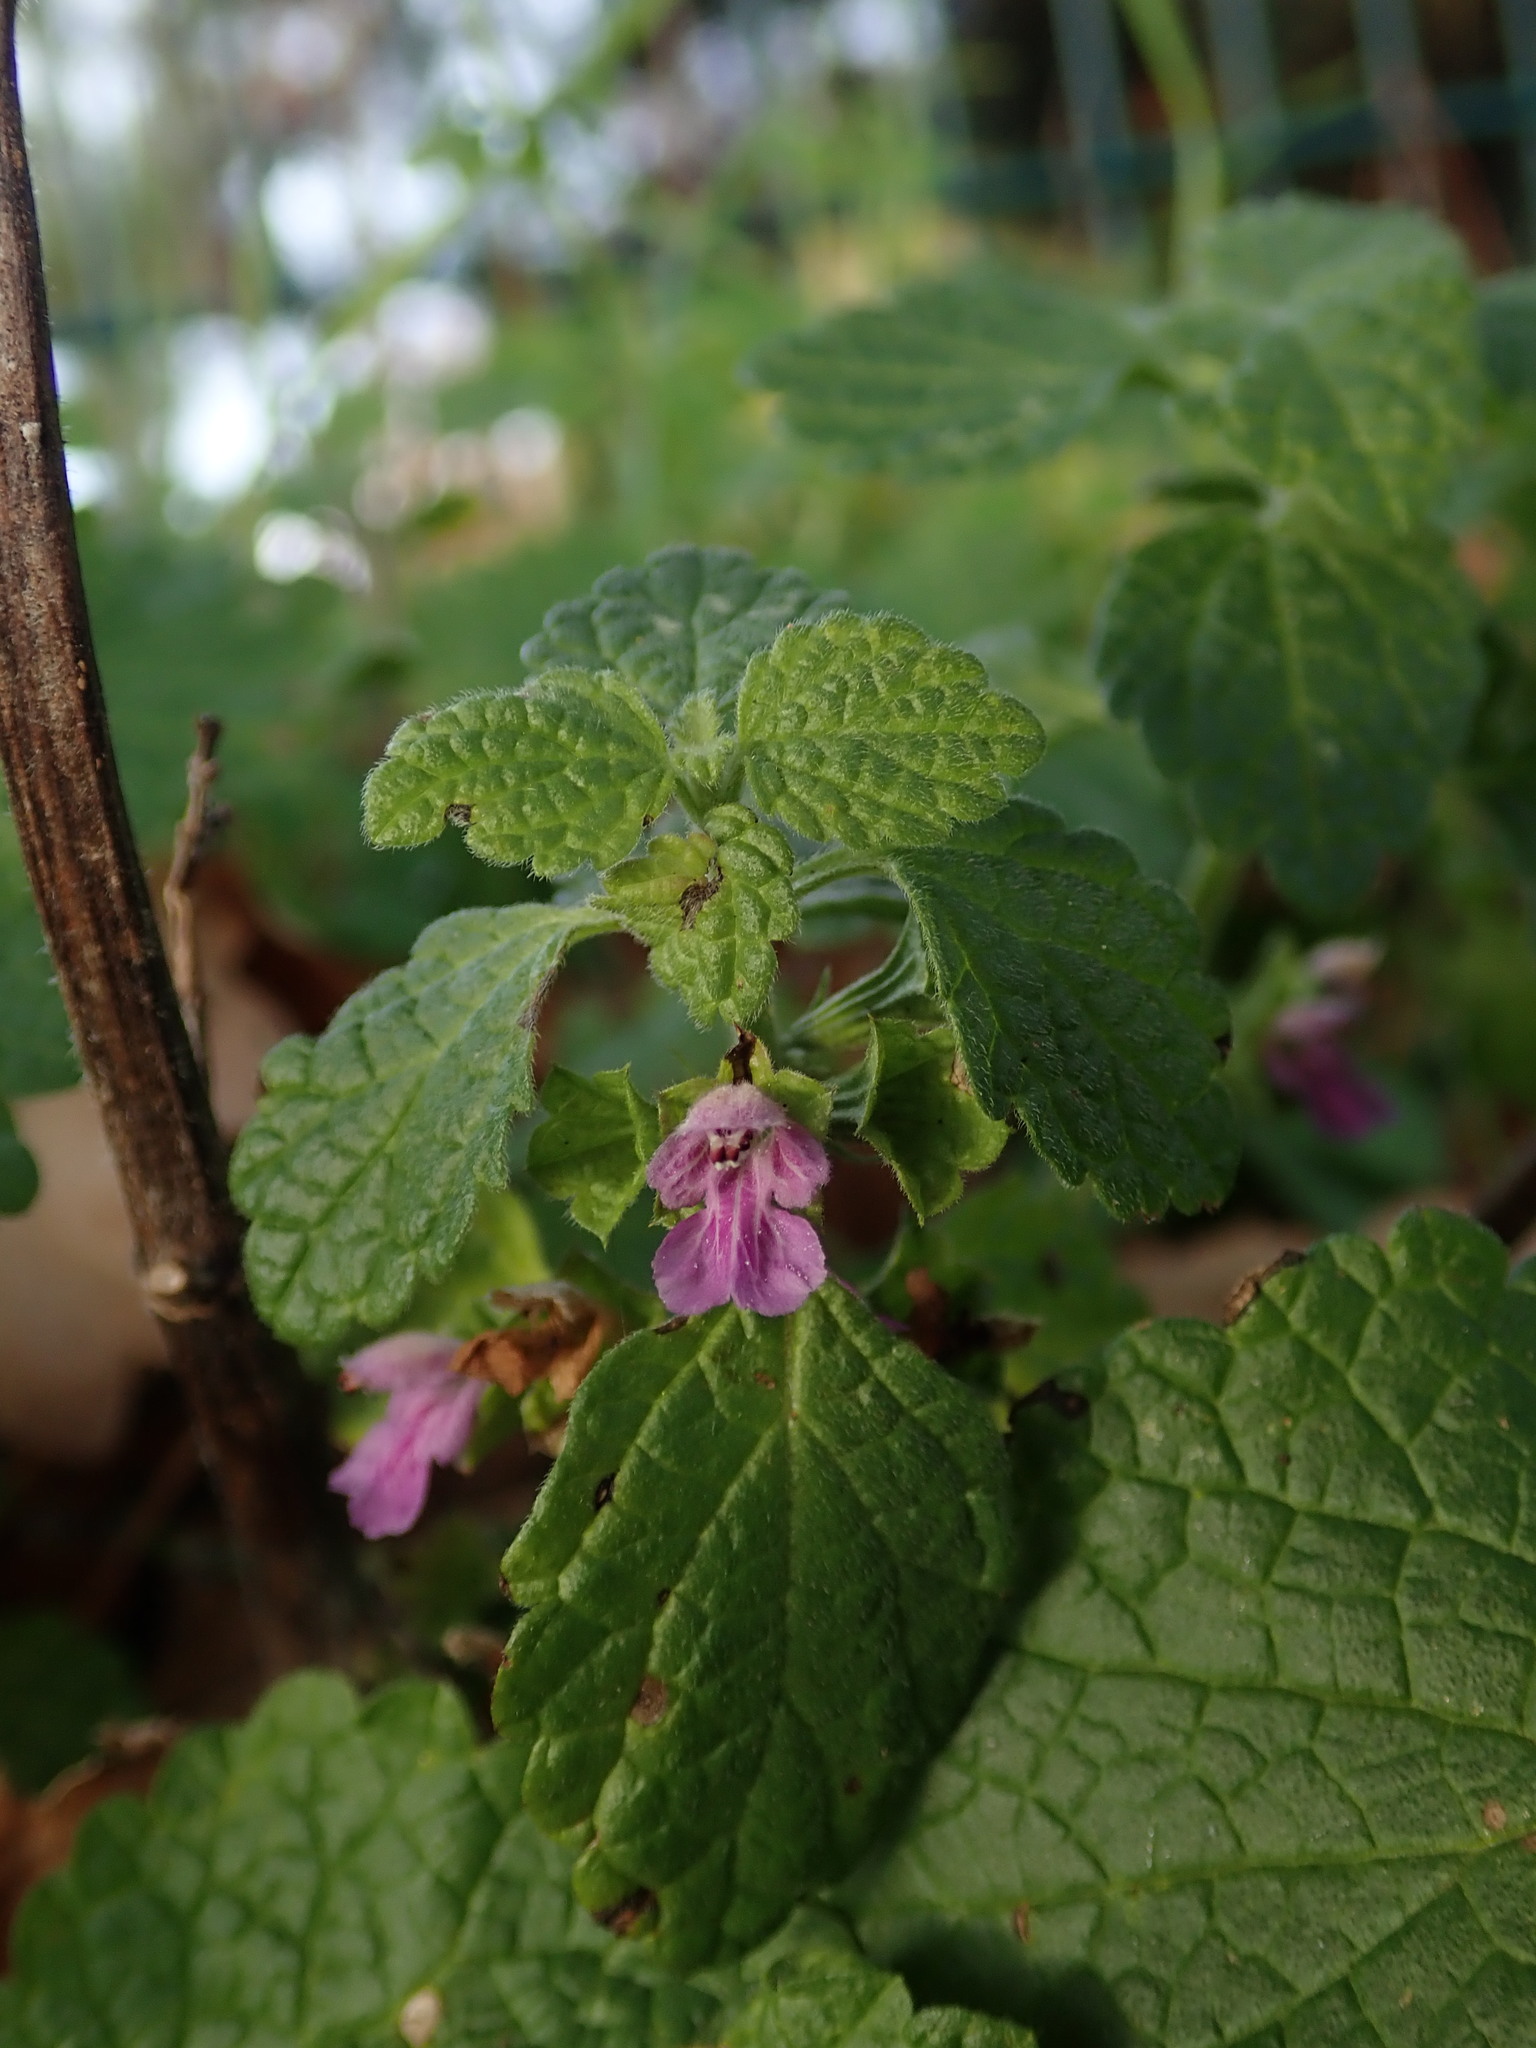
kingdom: Plantae
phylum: Tracheophyta
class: Magnoliopsida
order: Lamiales
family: Lamiaceae
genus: Ballota
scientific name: Ballota nigra
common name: Black horehound
